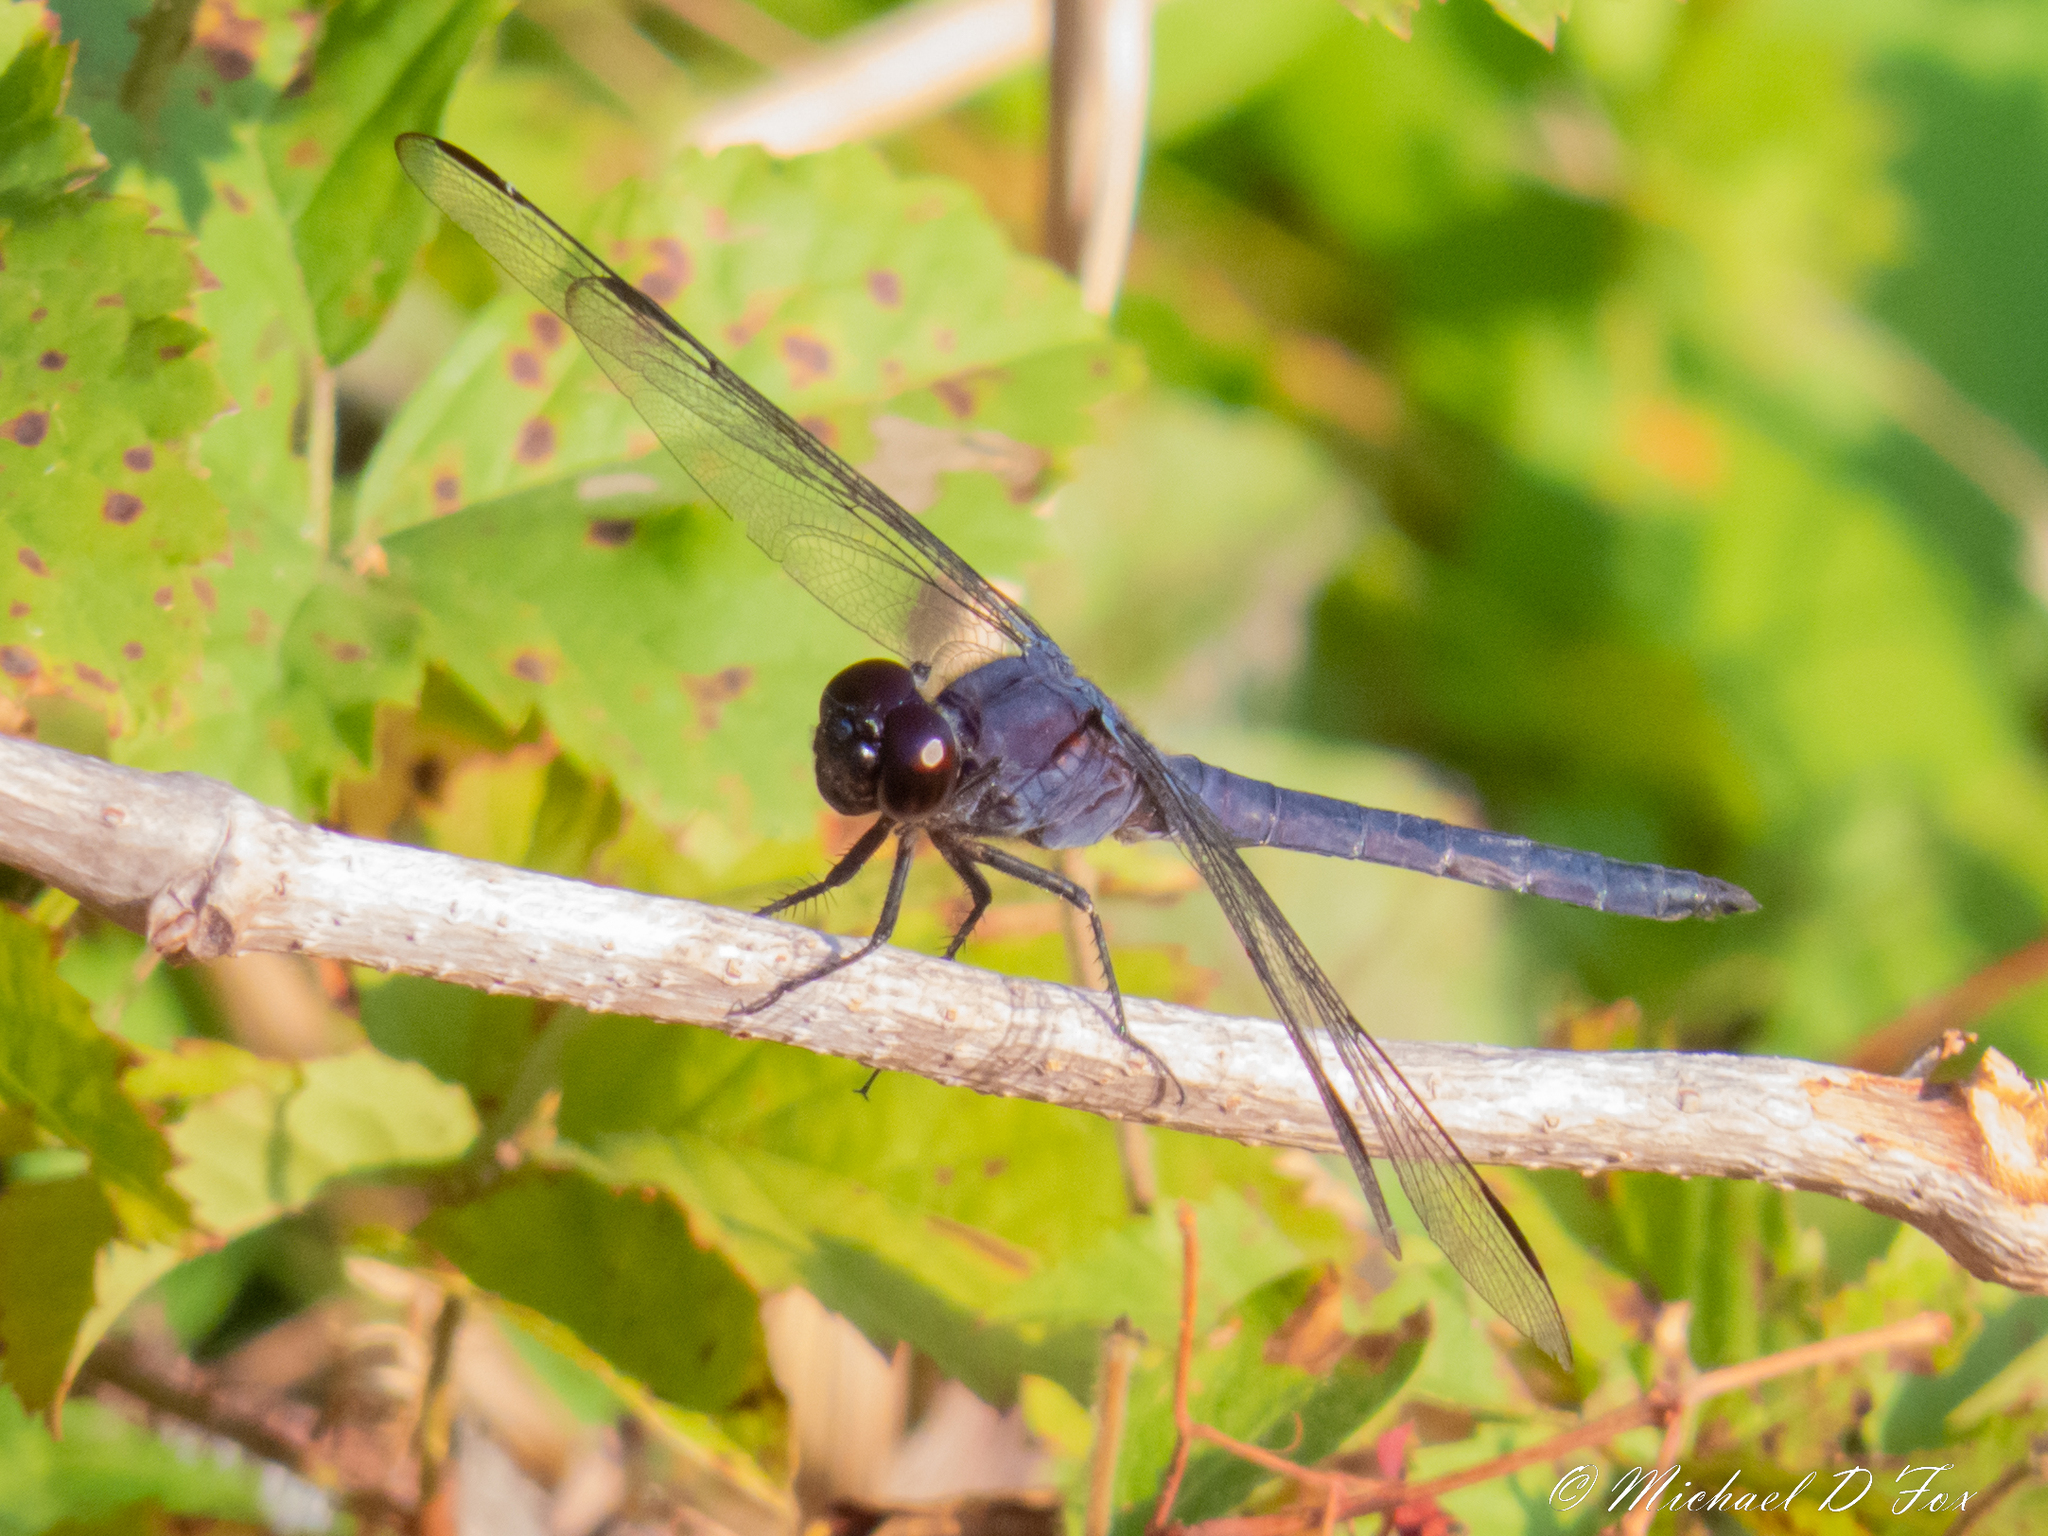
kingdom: Animalia
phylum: Arthropoda
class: Insecta
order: Odonata
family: Libellulidae
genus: Libellula
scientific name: Libellula incesta
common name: Slaty skimmer
